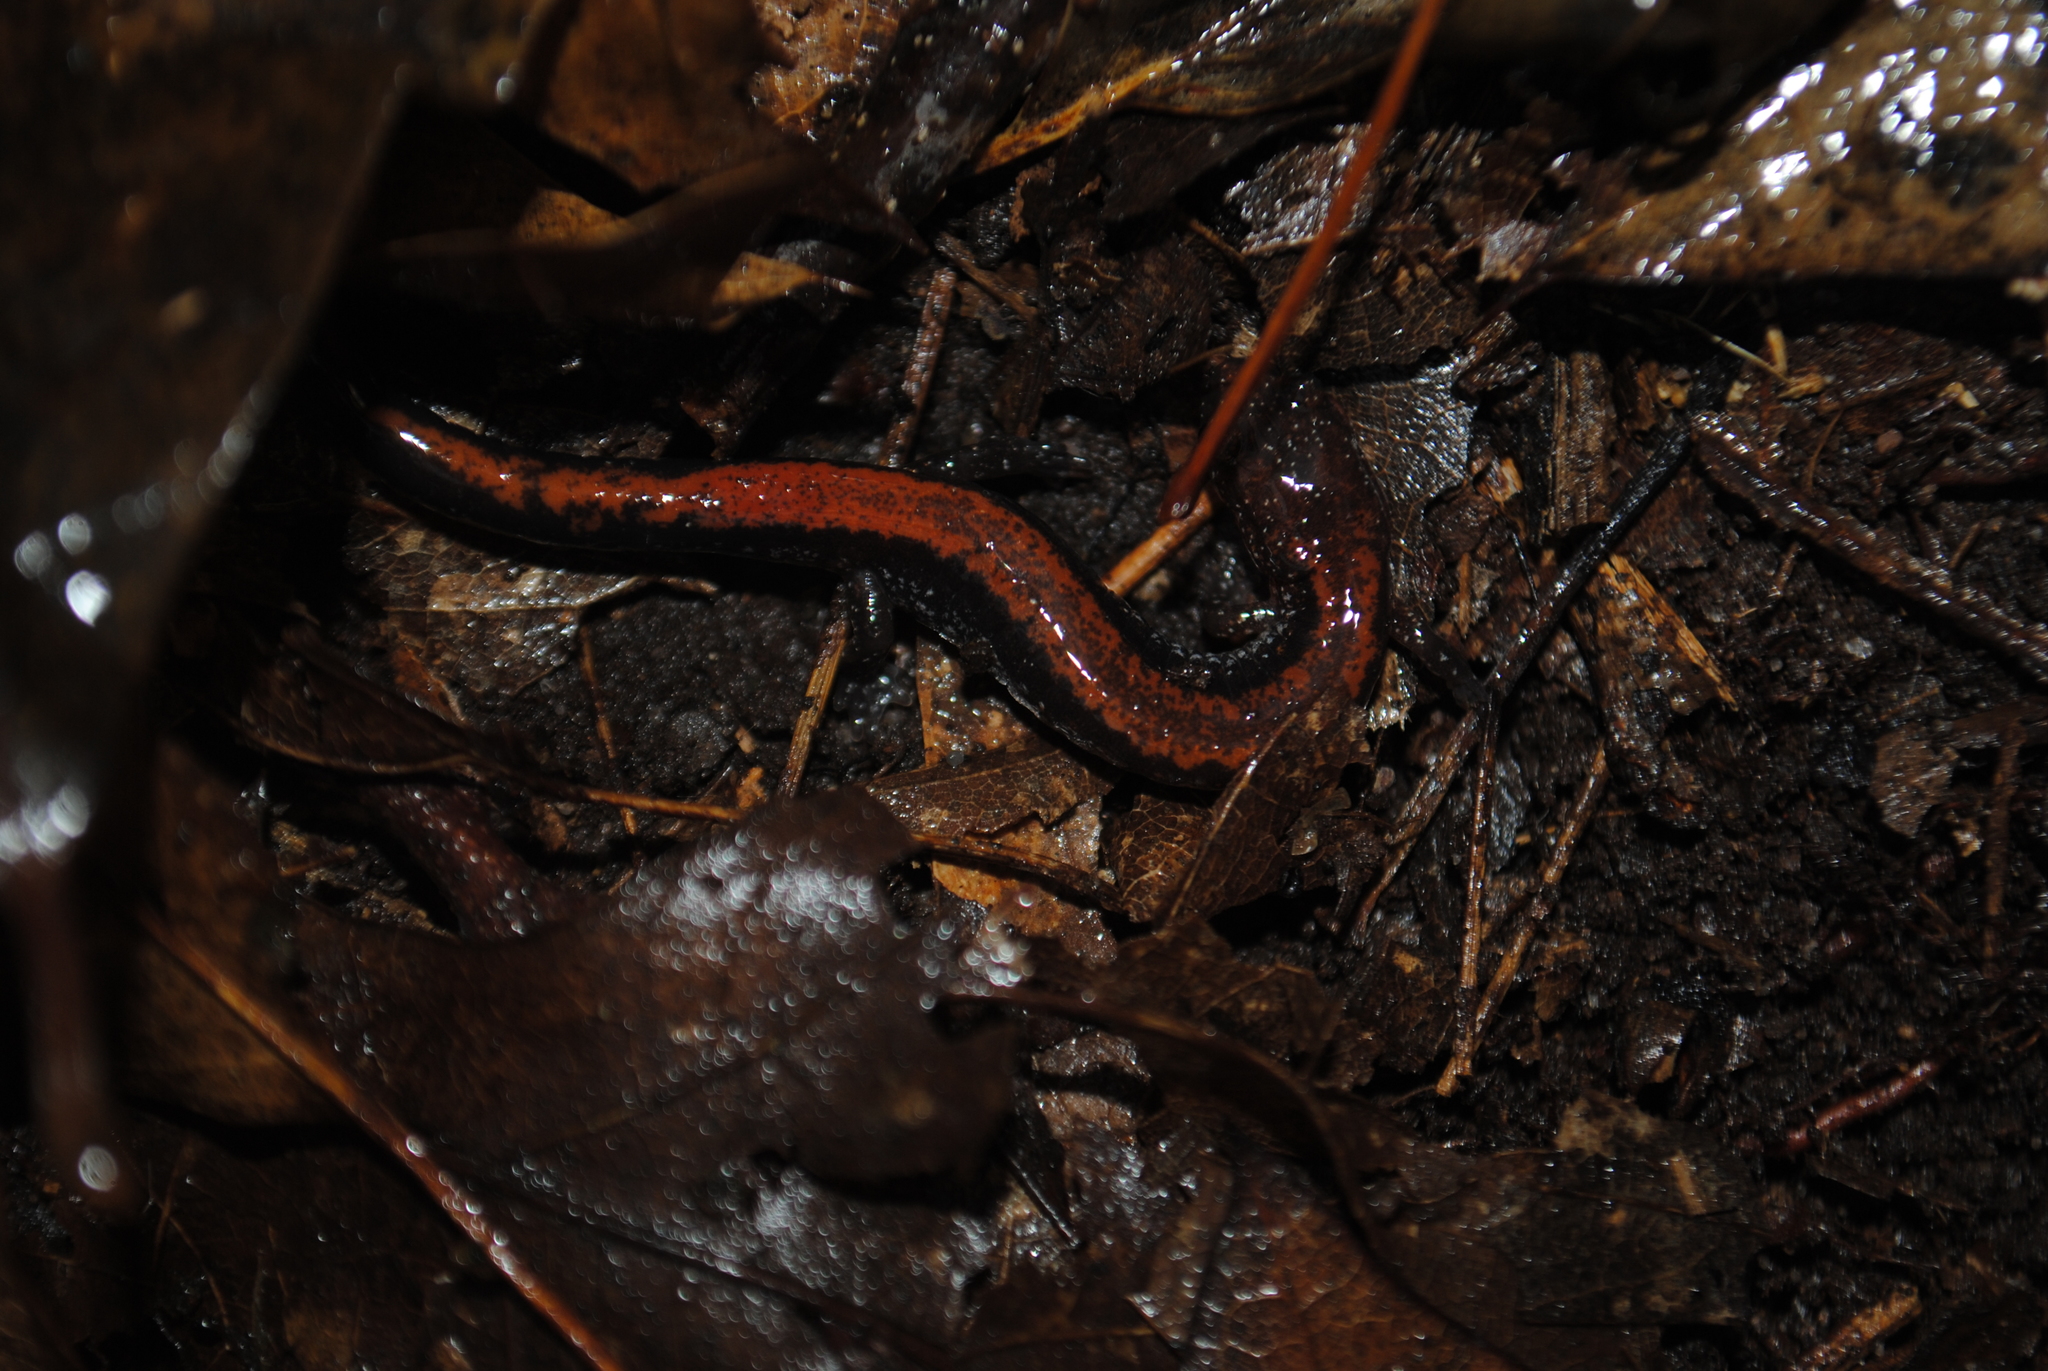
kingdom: Animalia
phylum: Chordata
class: Amphibia
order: Caudata
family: Plethodontidae
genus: Plethodon
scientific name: Plethodon cinereus
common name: Redback salamander
